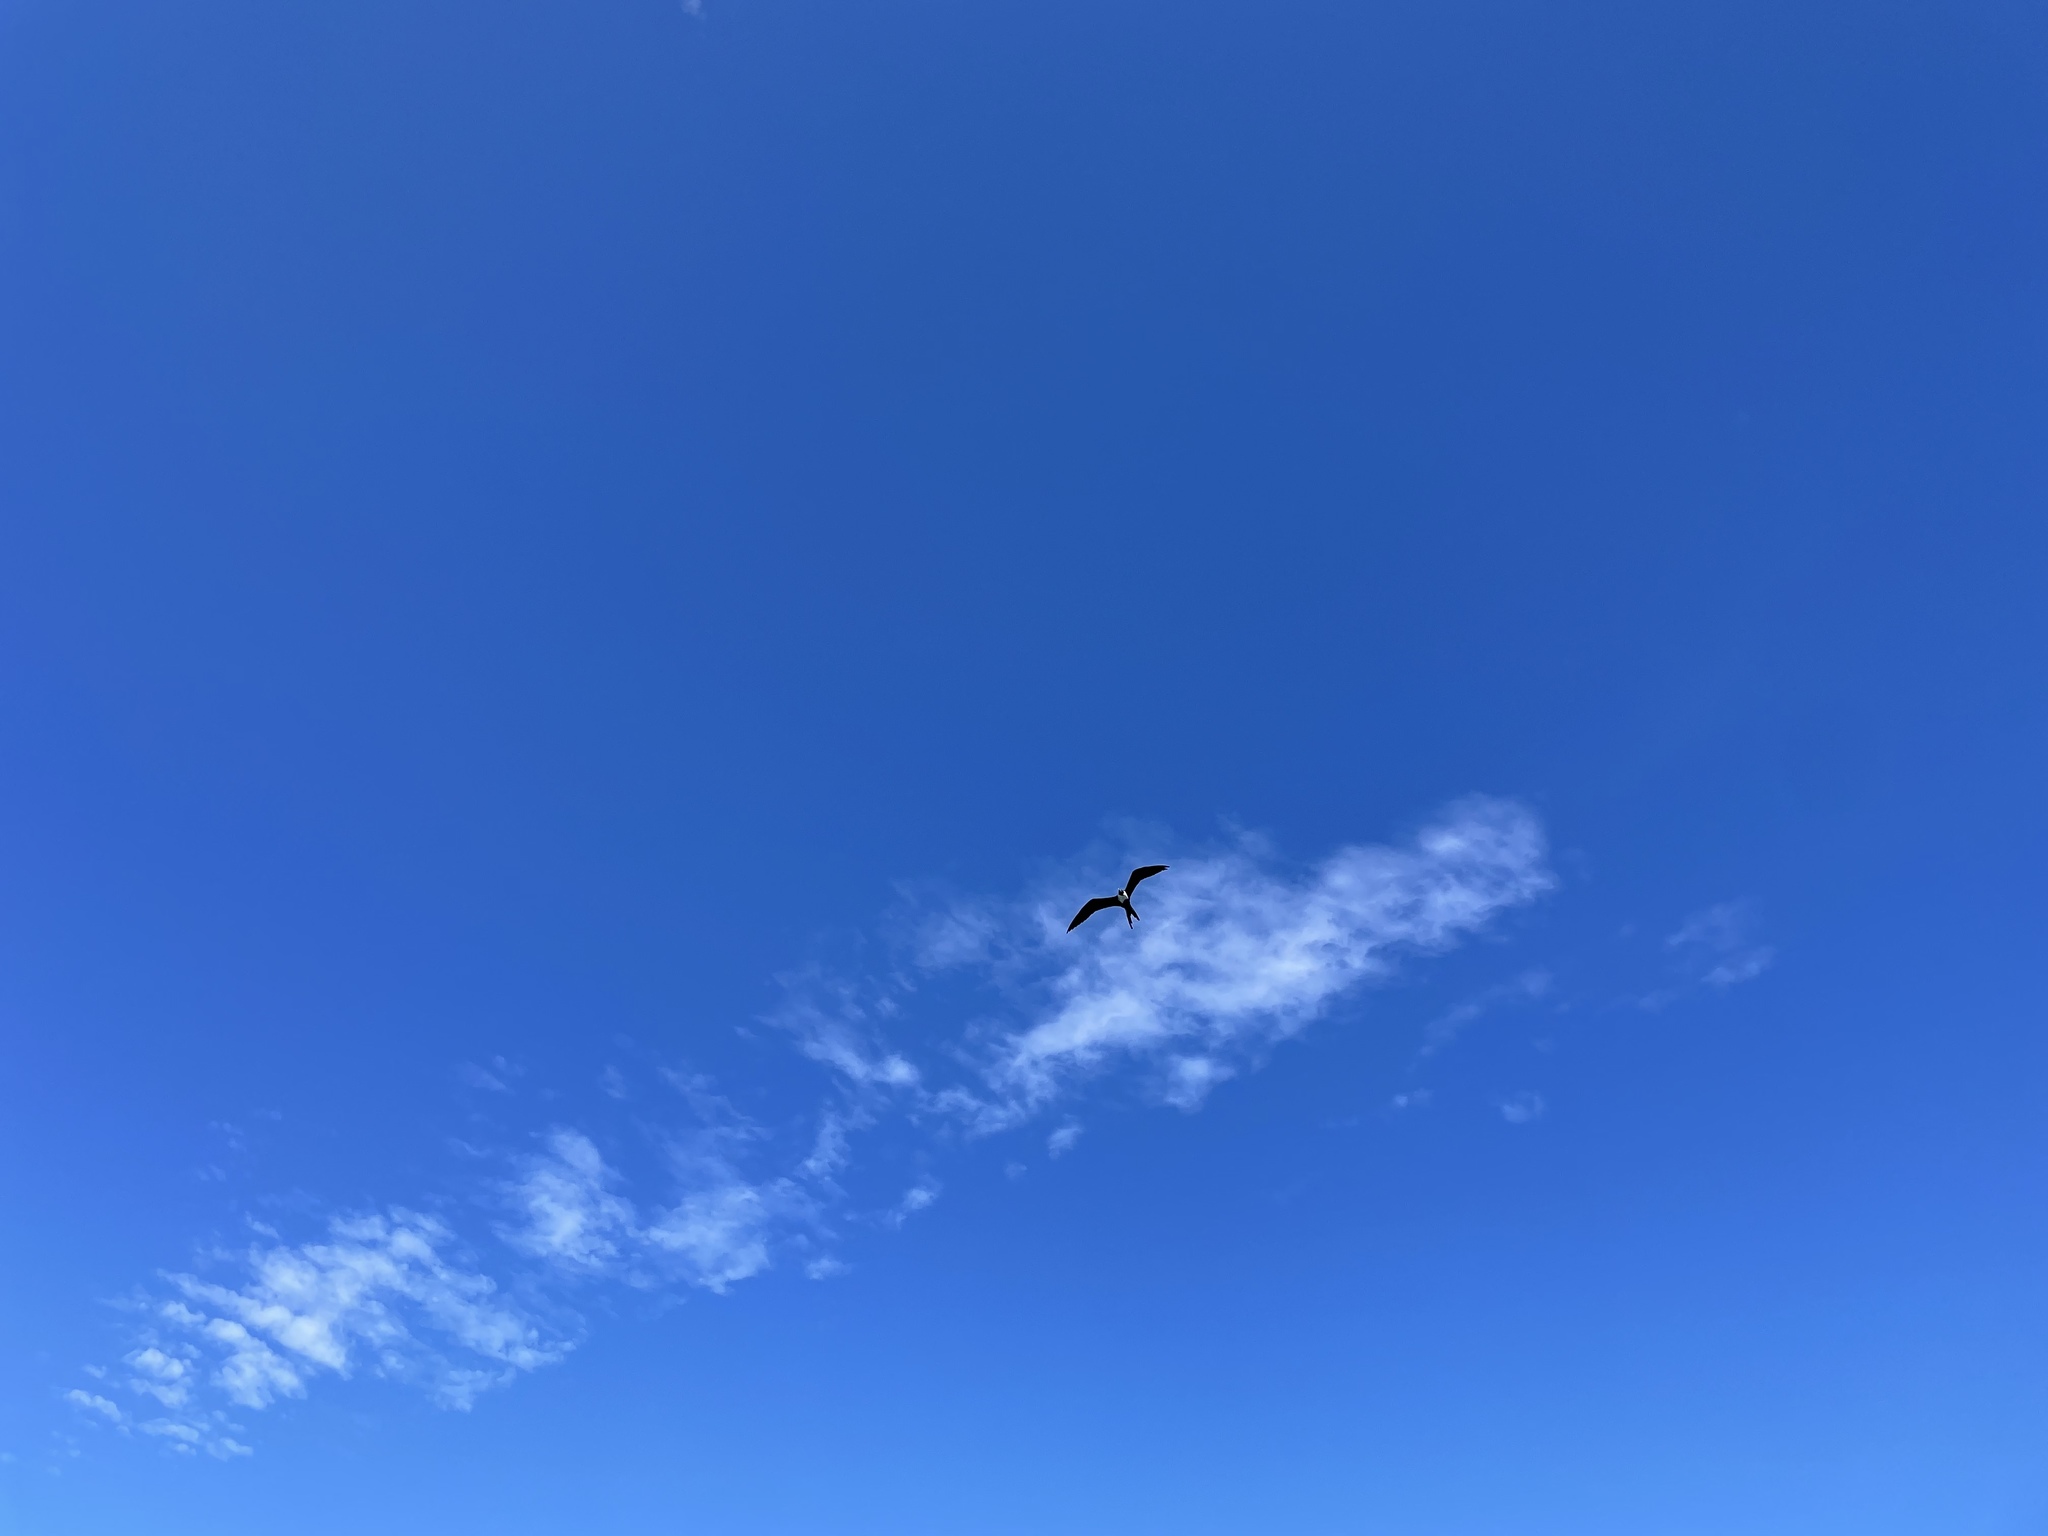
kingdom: Animalia
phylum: Chordata
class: Aves
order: Suliformes
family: Fregatidae
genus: Fregata
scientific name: Fregata magnificens
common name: Magnificent frigatebird
